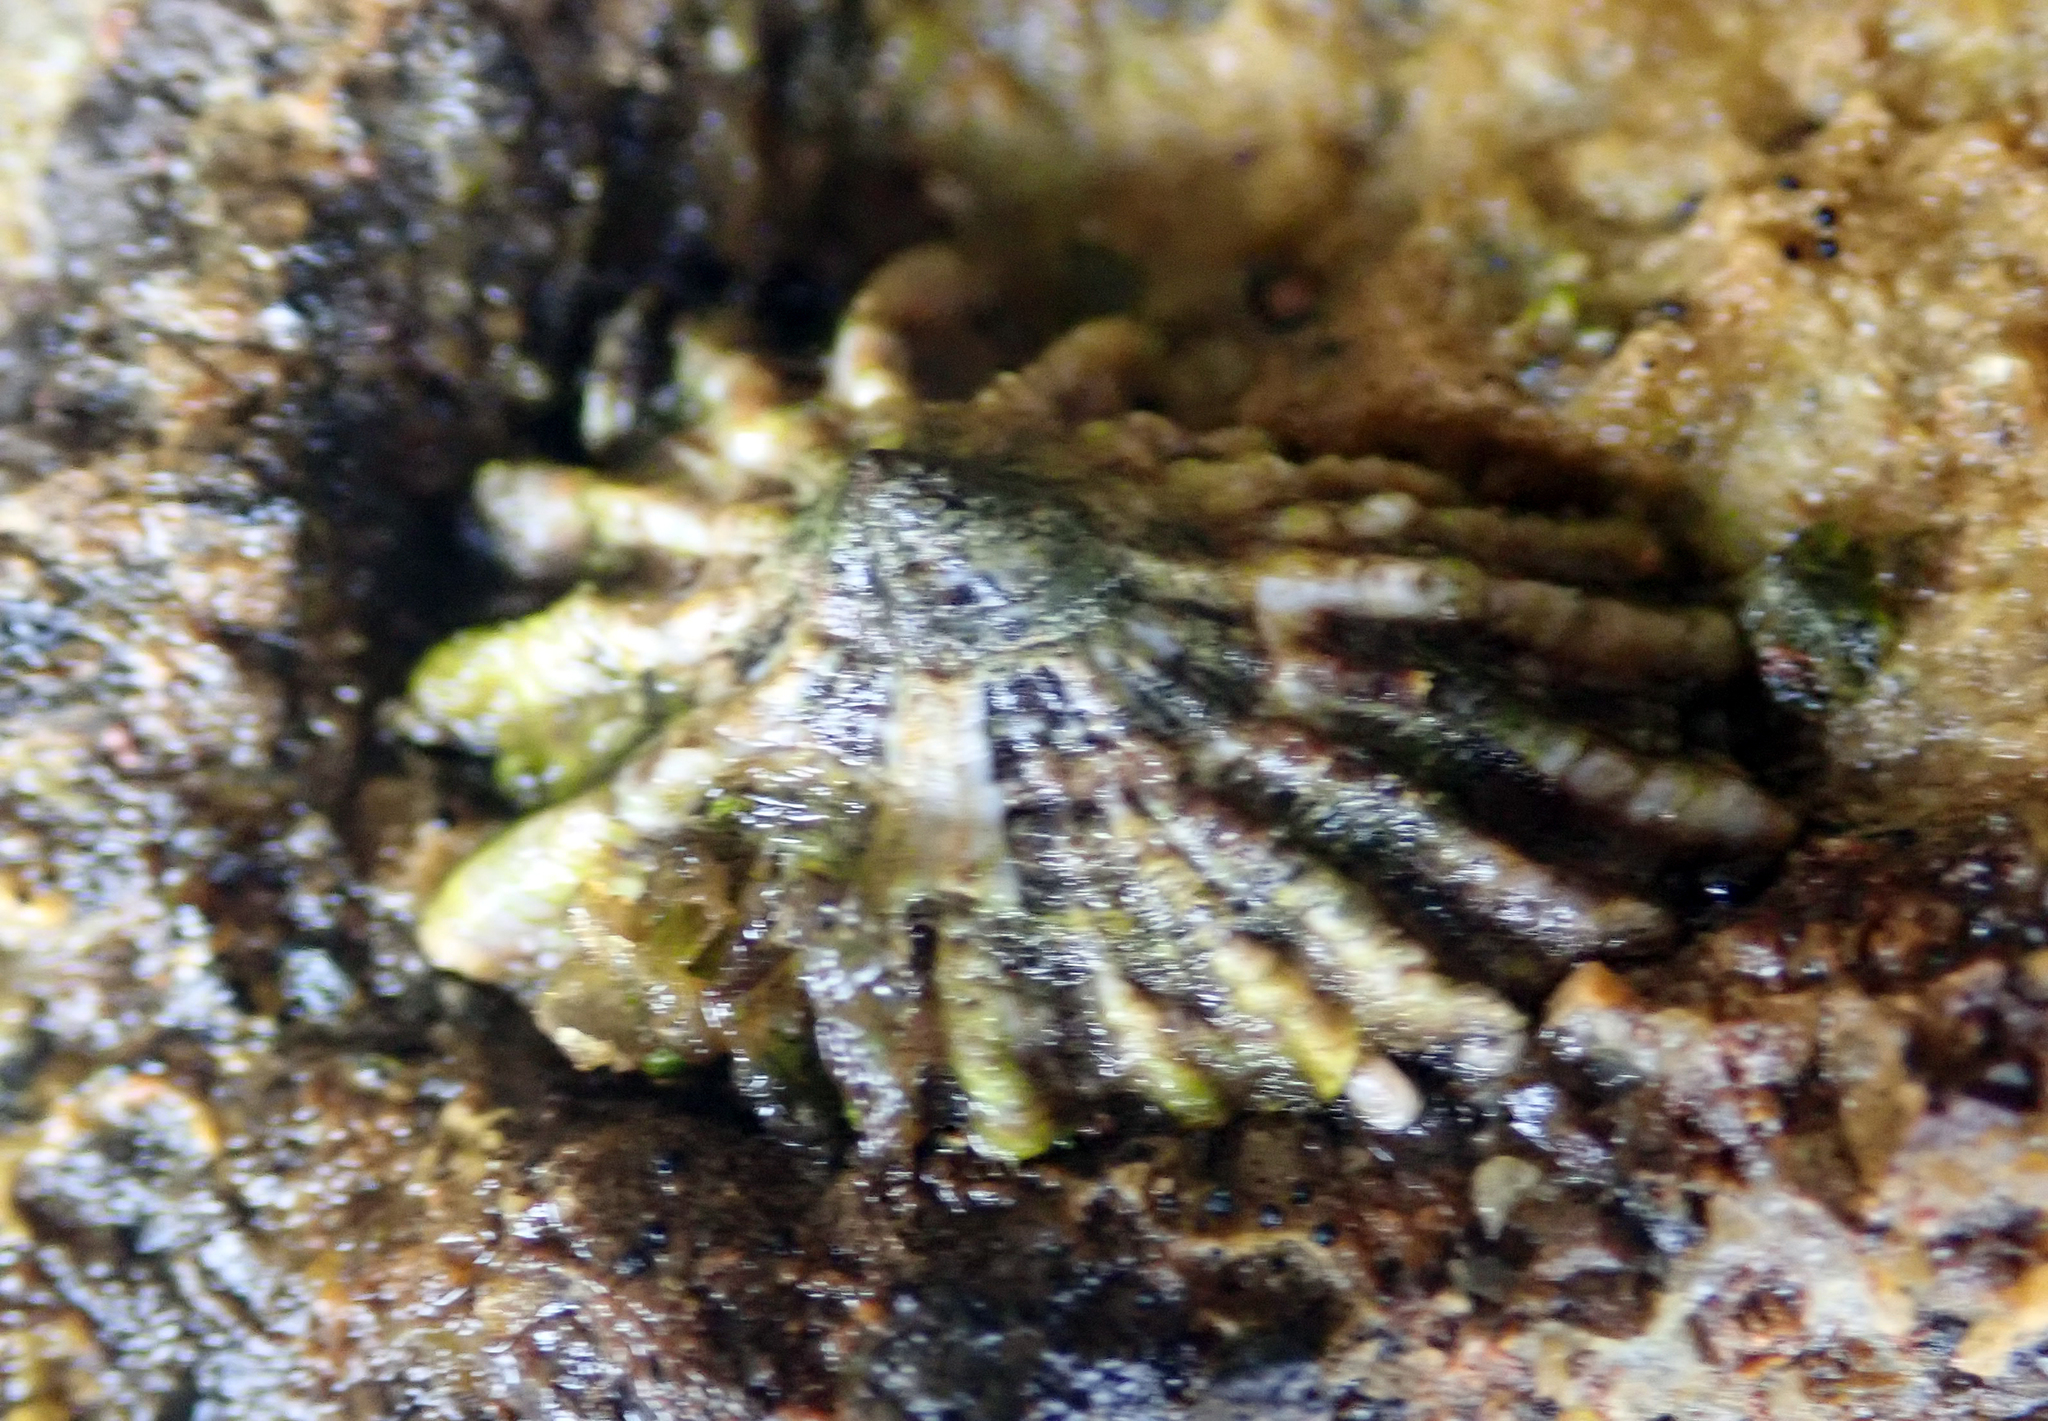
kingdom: Animalia
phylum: Mollusca
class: Gastropoda
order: Siphonariida
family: Siphonariidae
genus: Siphonaria
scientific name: Siphonaria australis
